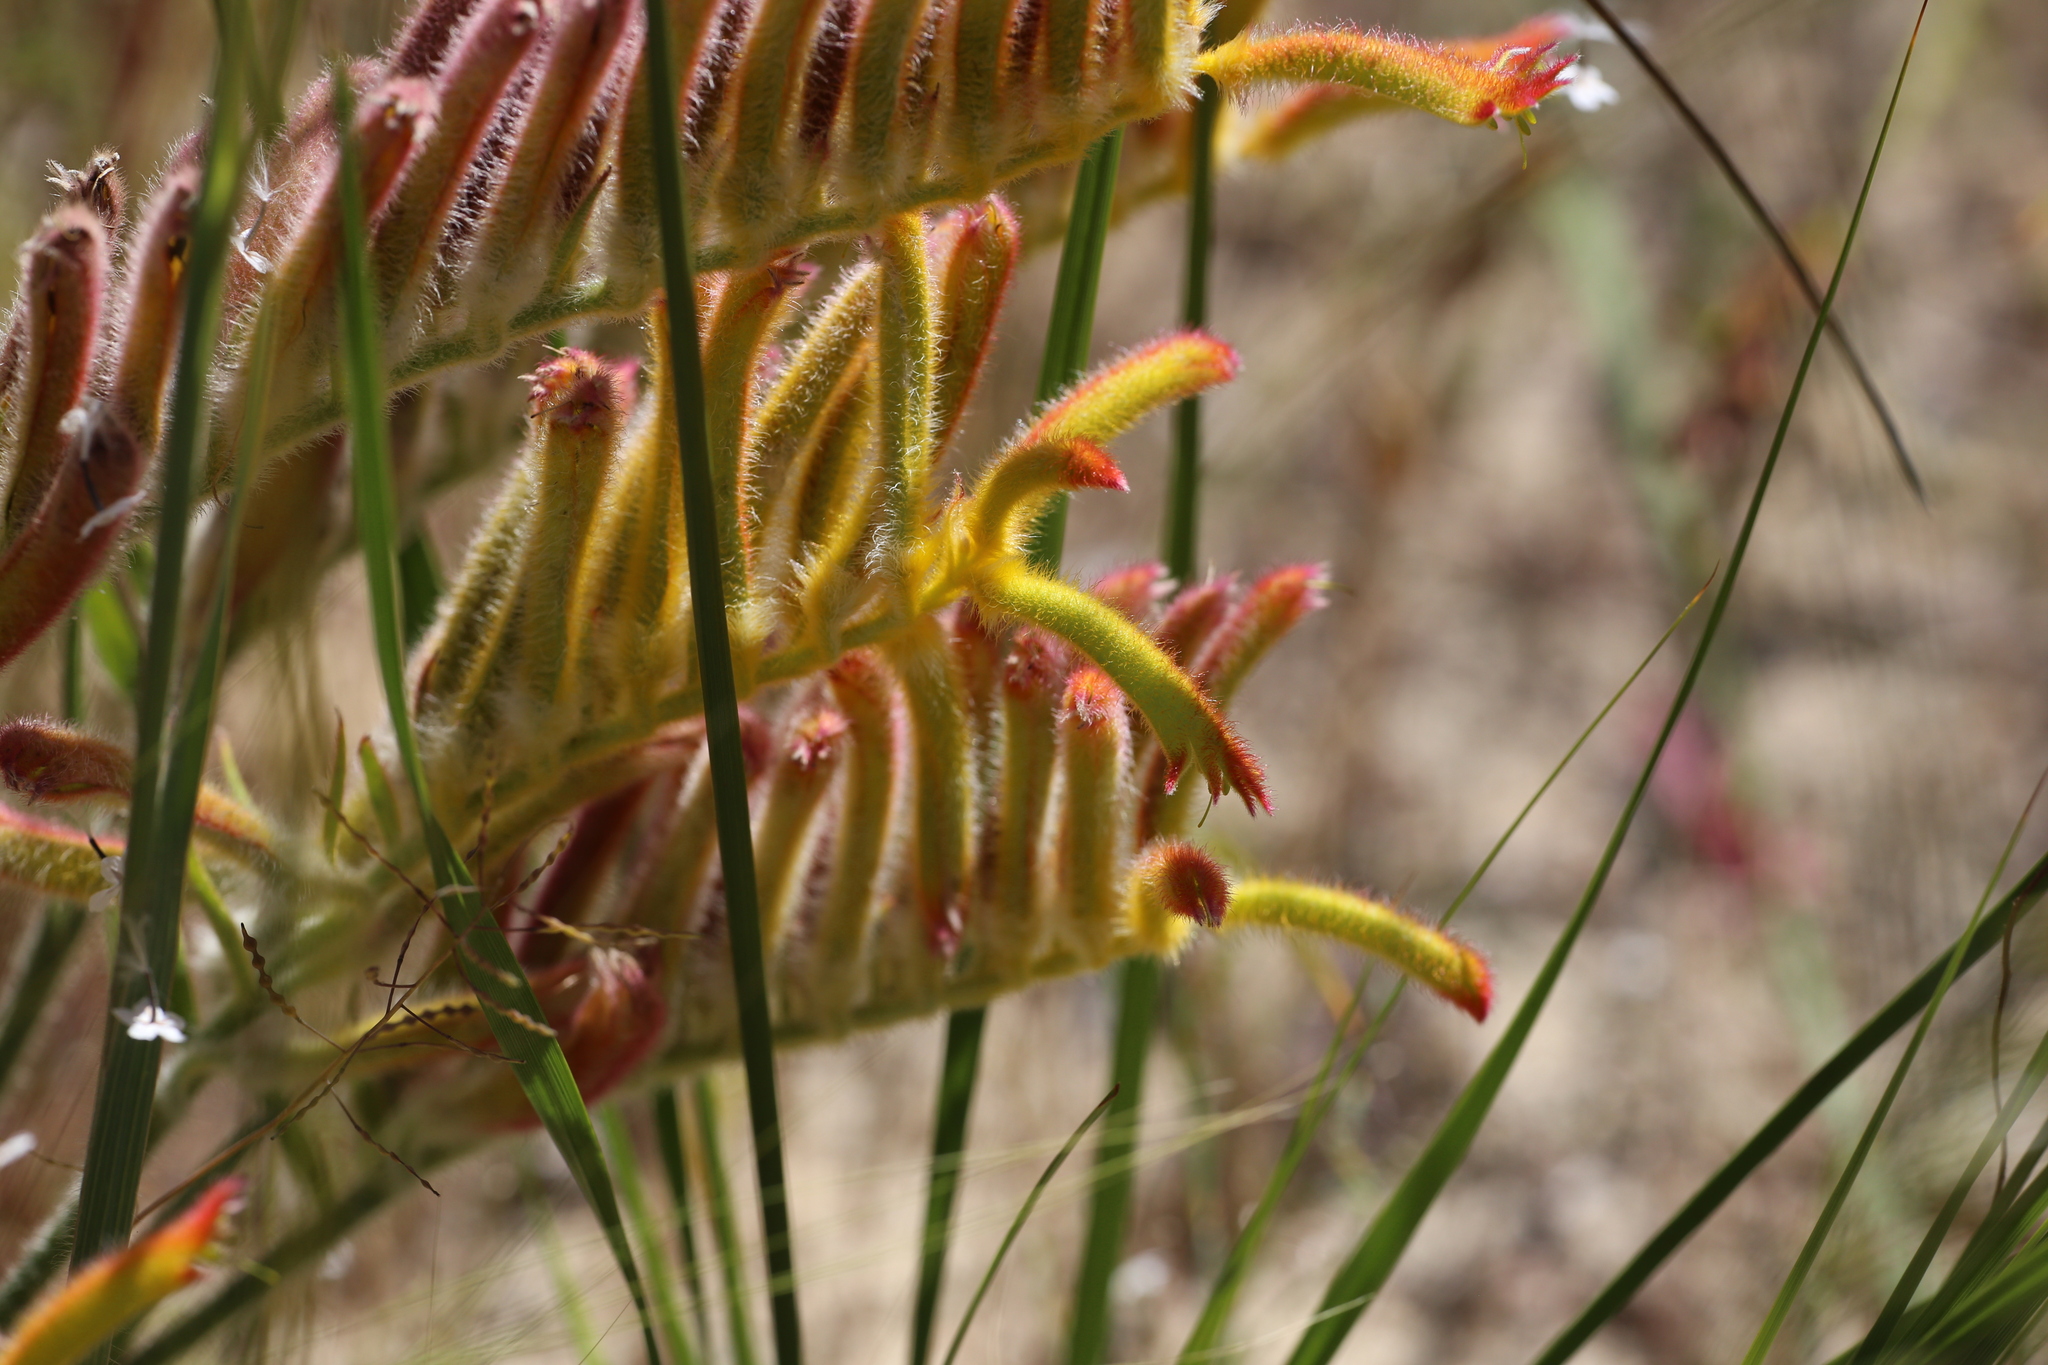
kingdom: Plantae
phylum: Tracheophyta
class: Liliopsida
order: Commelinales
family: Haemodoraceae
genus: Anigozanthos
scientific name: Anigozanthos humilis
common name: Cat's-paw
